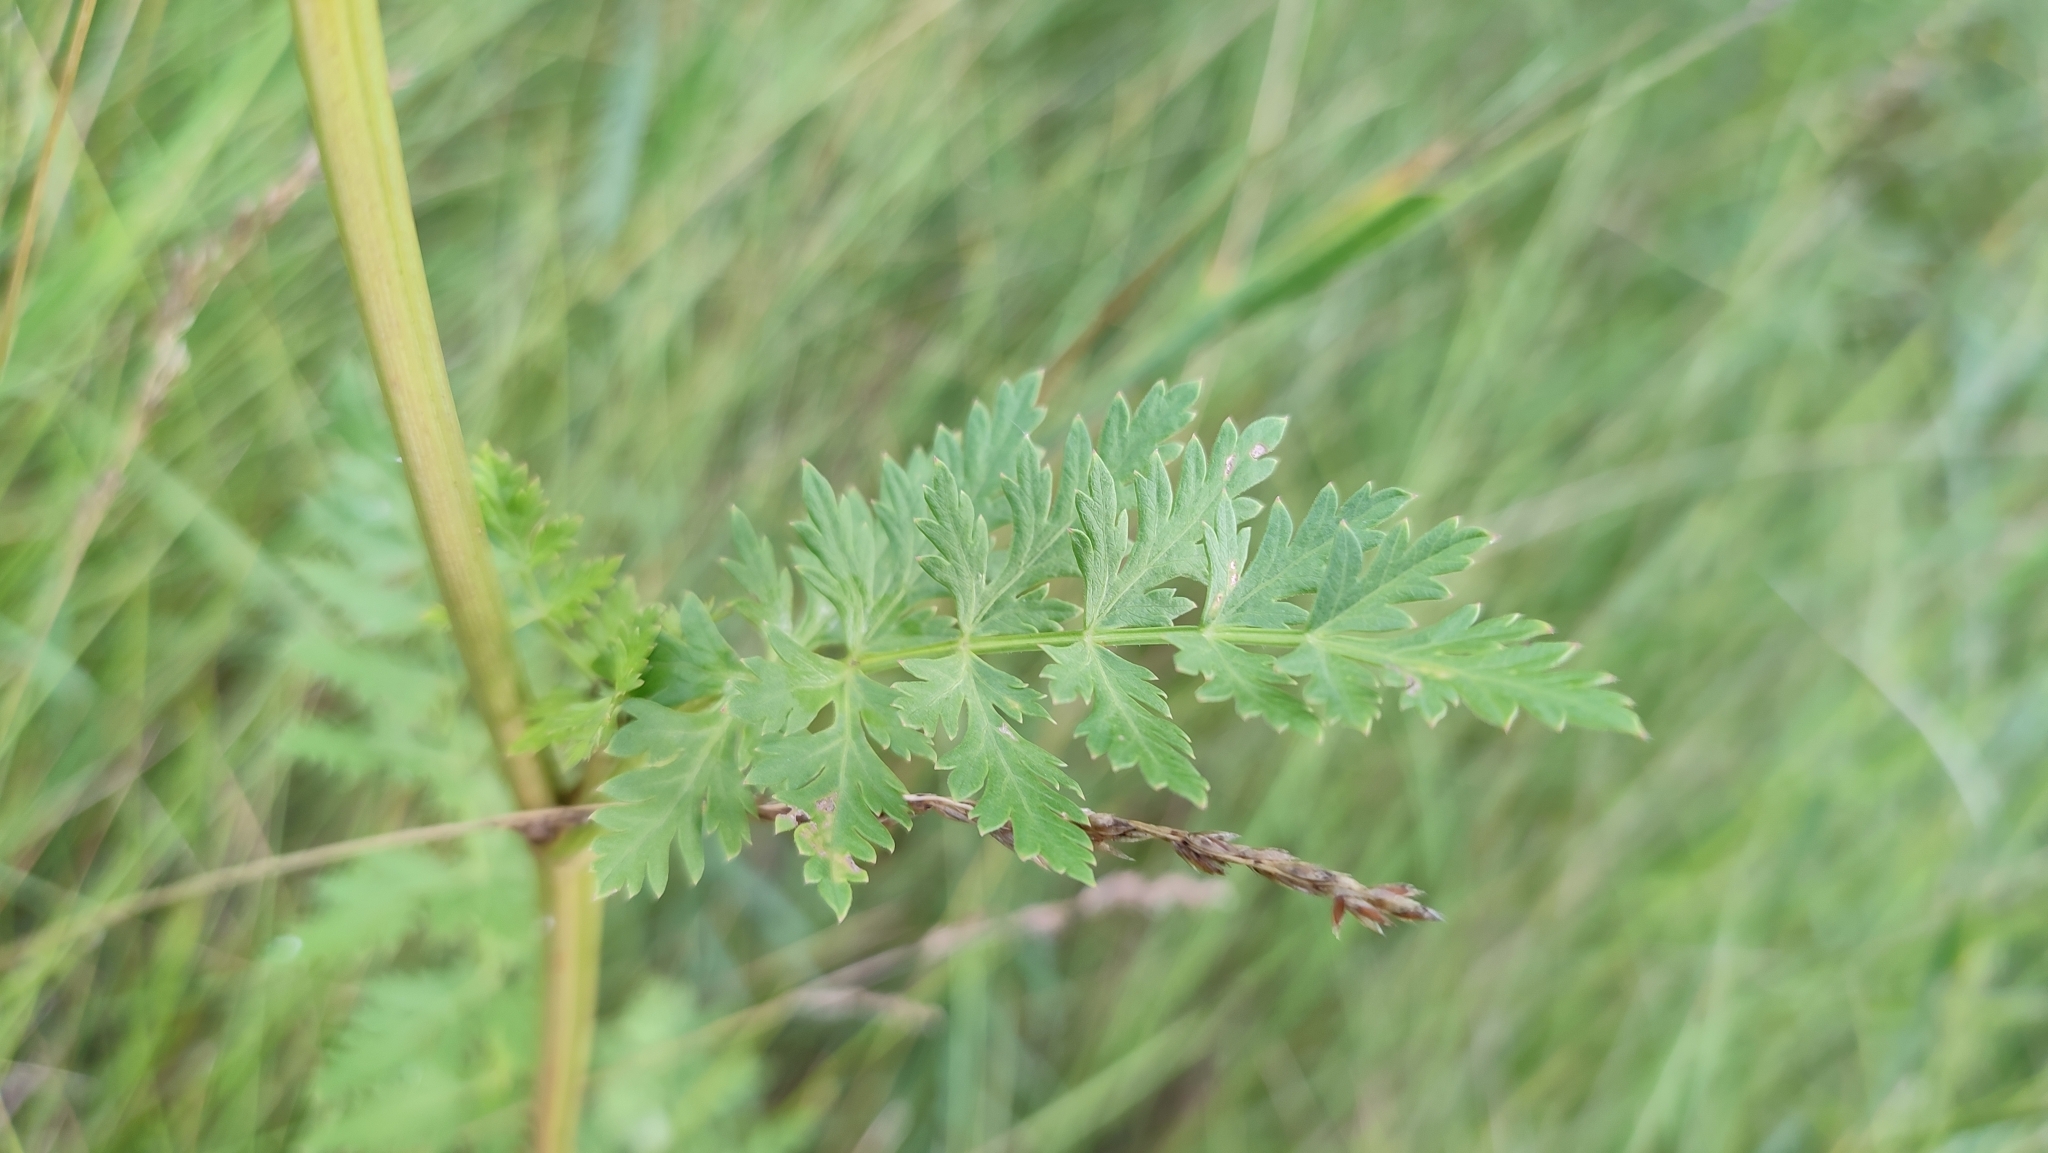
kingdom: Plantae
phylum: Tracheophyta
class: Magnoliopsida
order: Apiales
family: Apiaceae
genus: Seseli
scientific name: Seseli libanotis
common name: Mooncarrot
